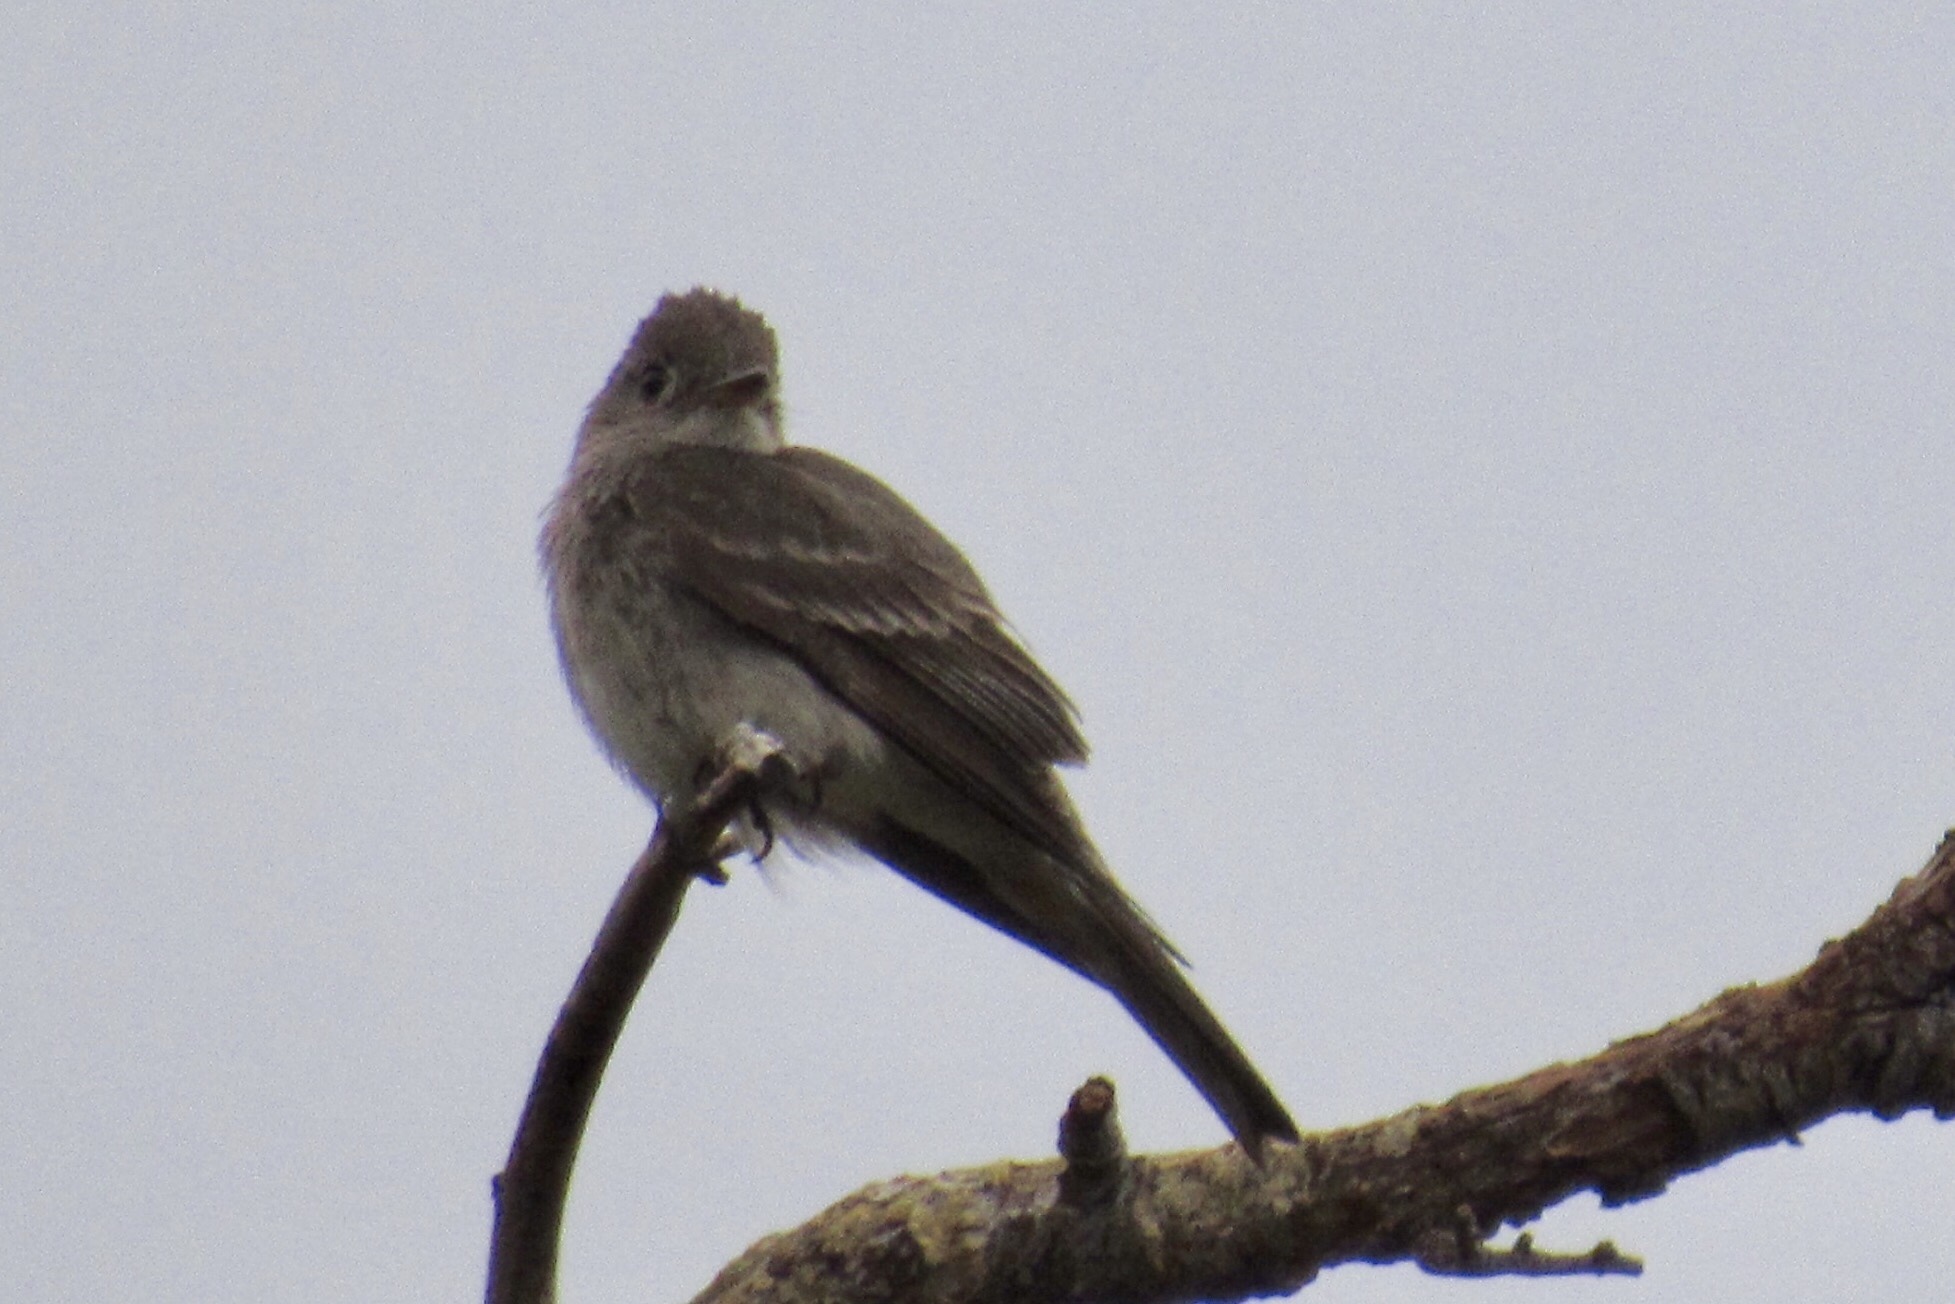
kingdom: Animalia
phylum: Chordata
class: Aves
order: Passeriformes
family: Tyrannidae
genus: Contopus
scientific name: Contopus sordidulus
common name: Western wood-pewee
